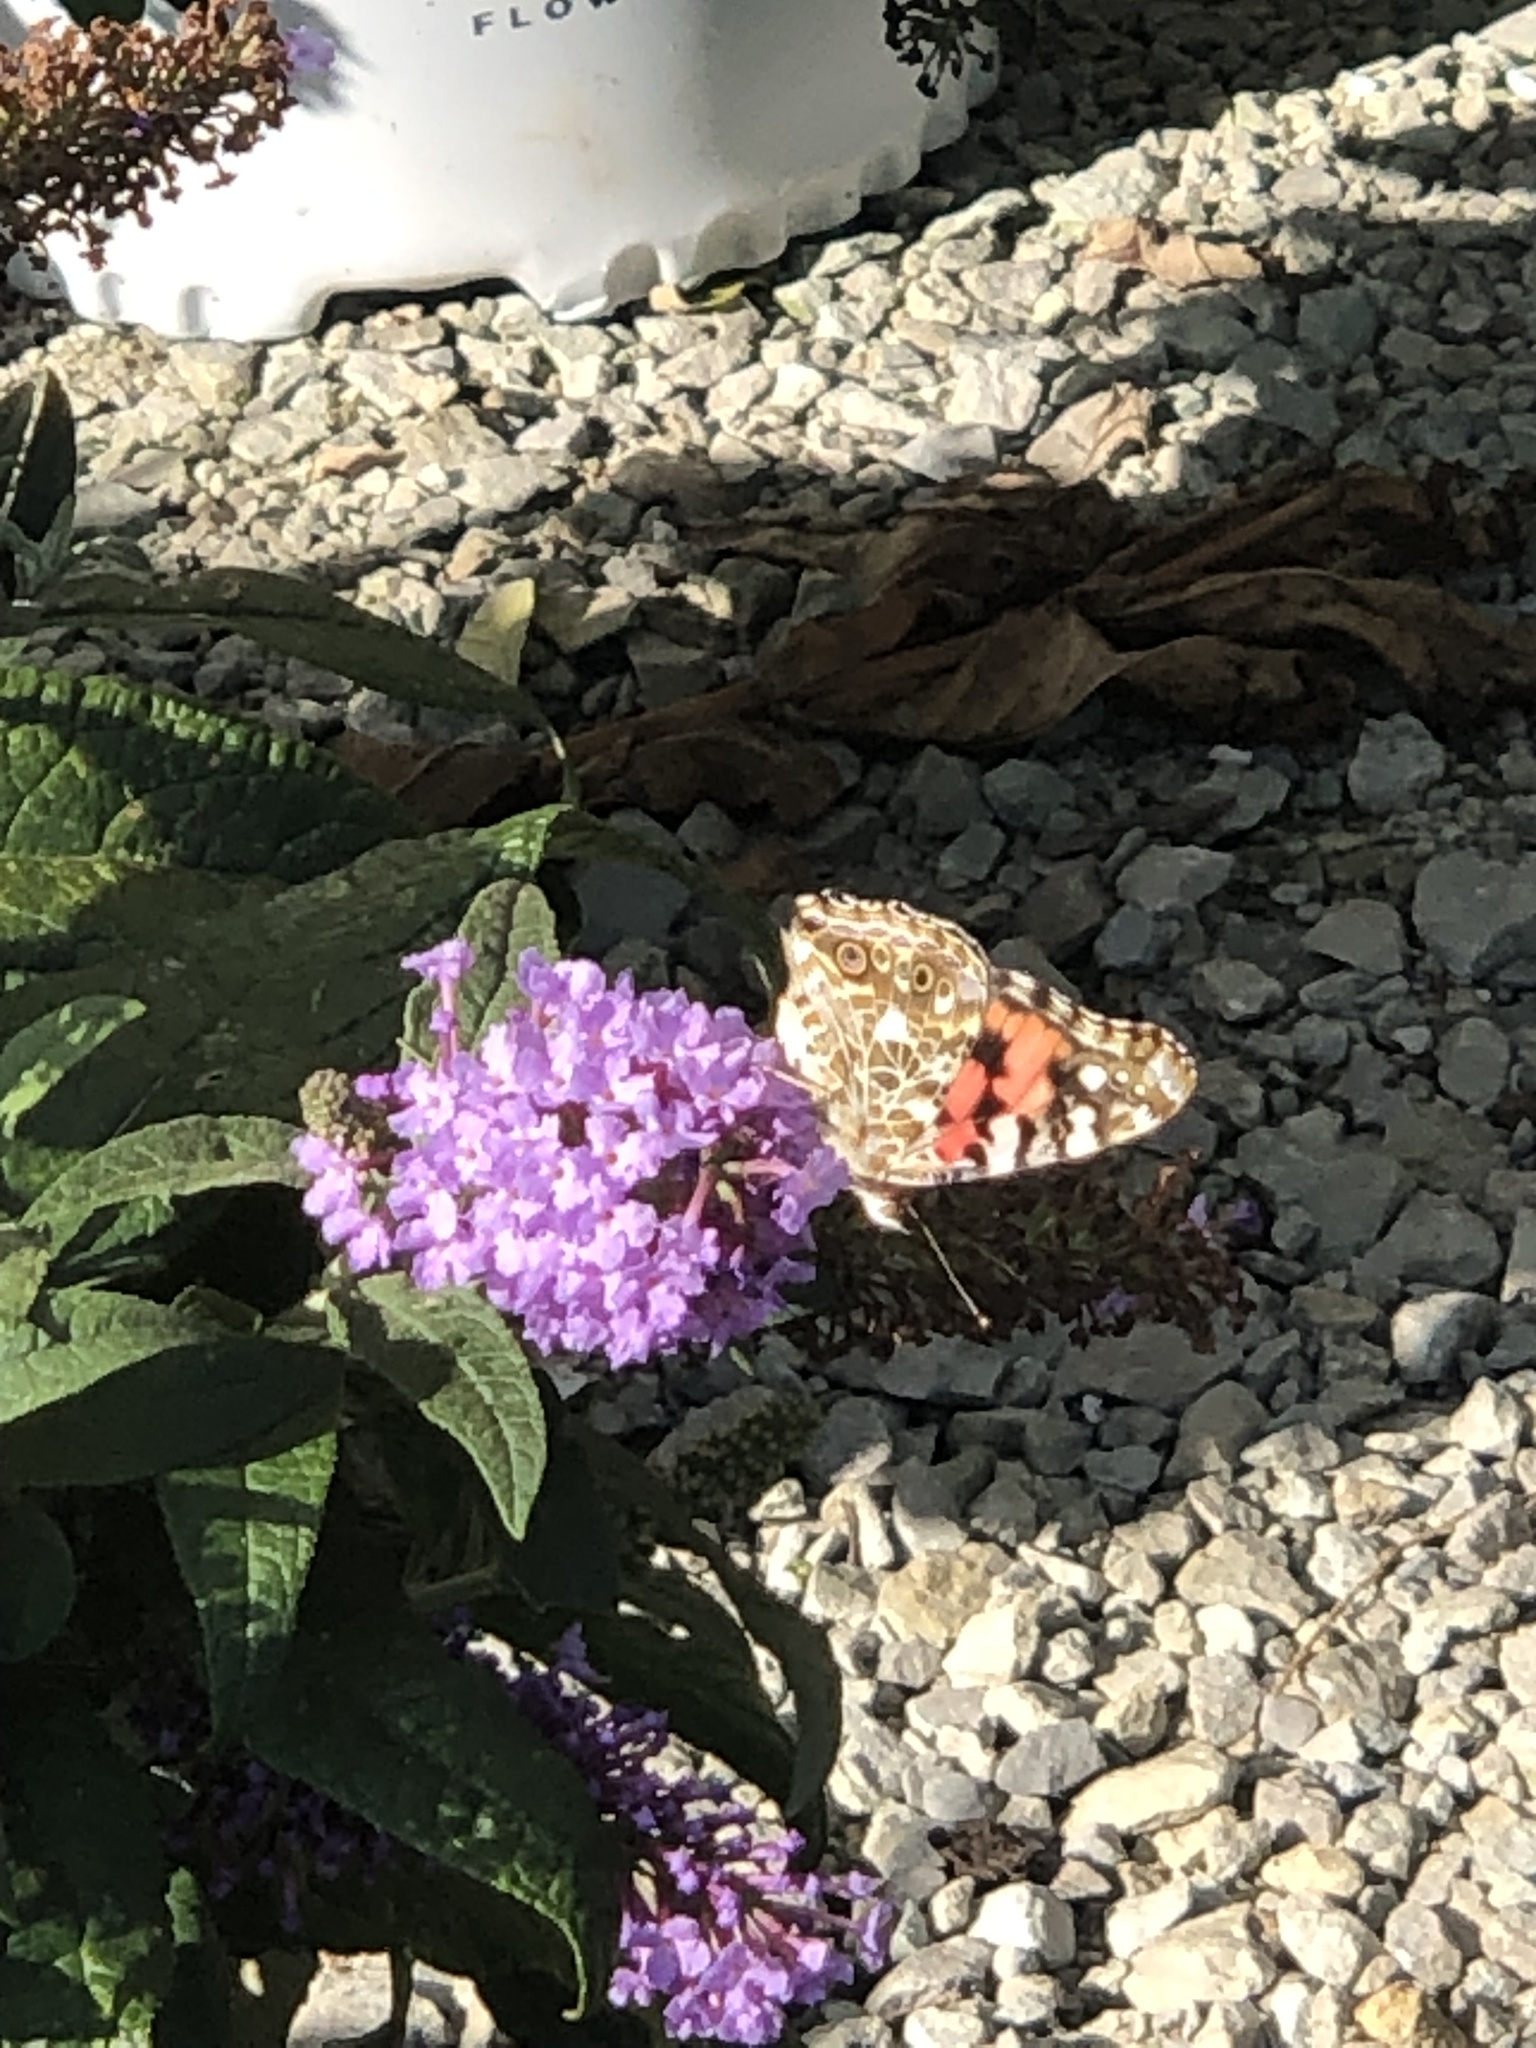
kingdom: Animalia
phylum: Arthropoda
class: Insecta
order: Lepidoptera
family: Nymphalidae
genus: Vanessa
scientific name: Vanessa cardui
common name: Painted lady
